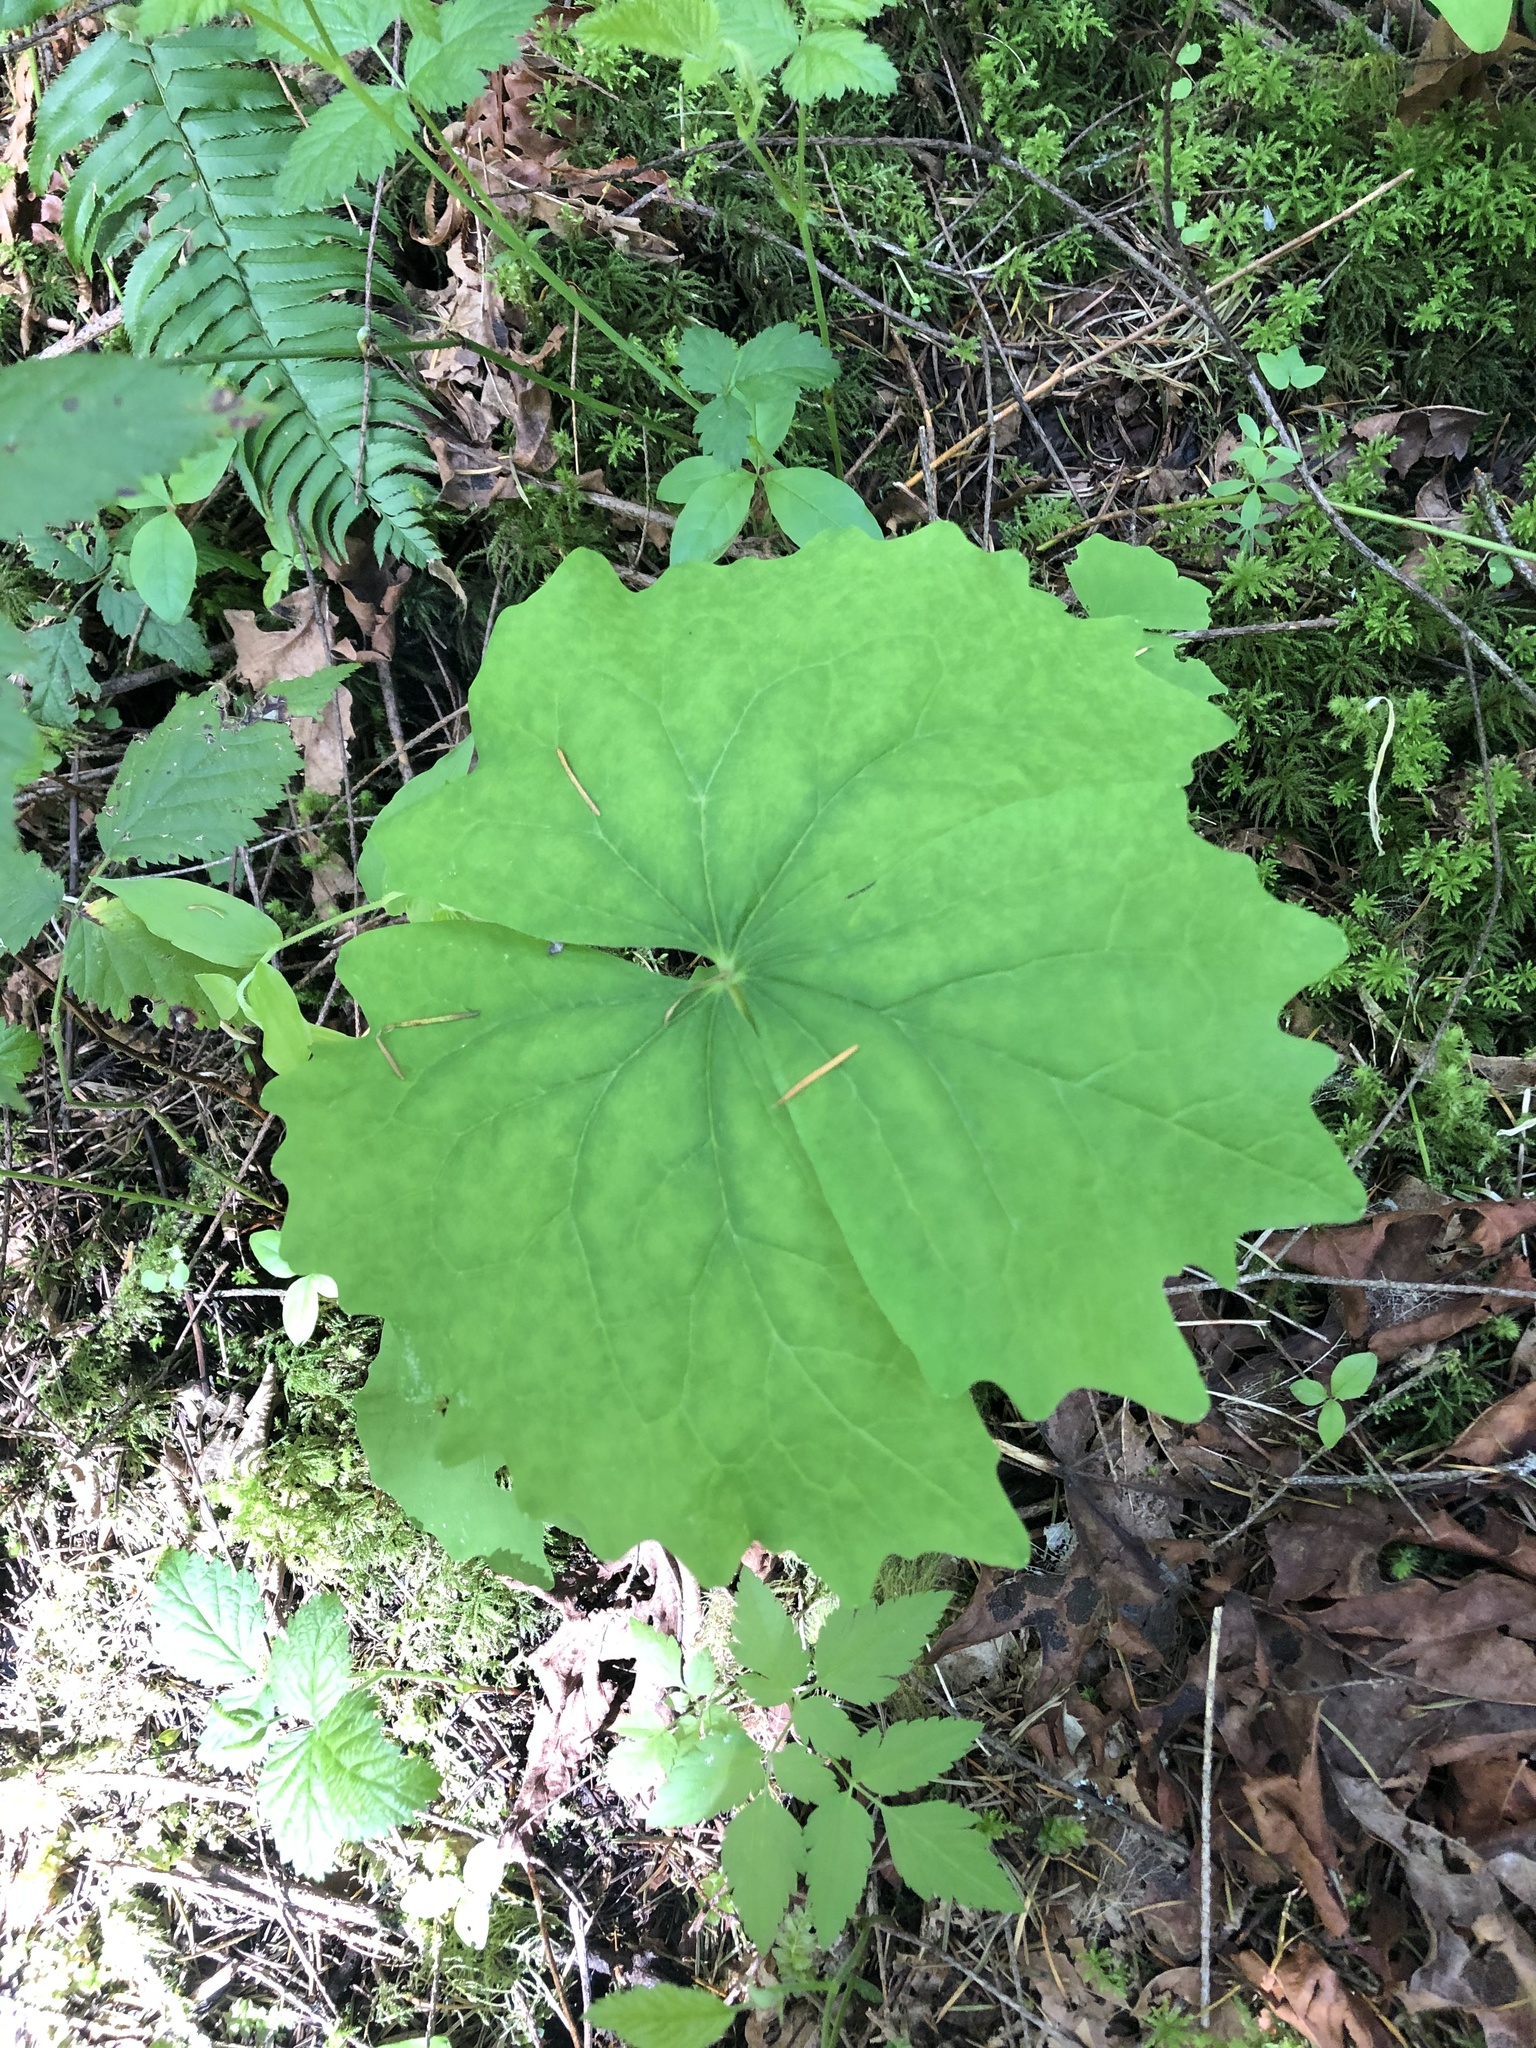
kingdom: Plantae
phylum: Tracheophyta
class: Magnoliopsida
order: Ranunculales
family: Berberidaceae
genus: Achlys
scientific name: Achlys californica
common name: California deer-foot
